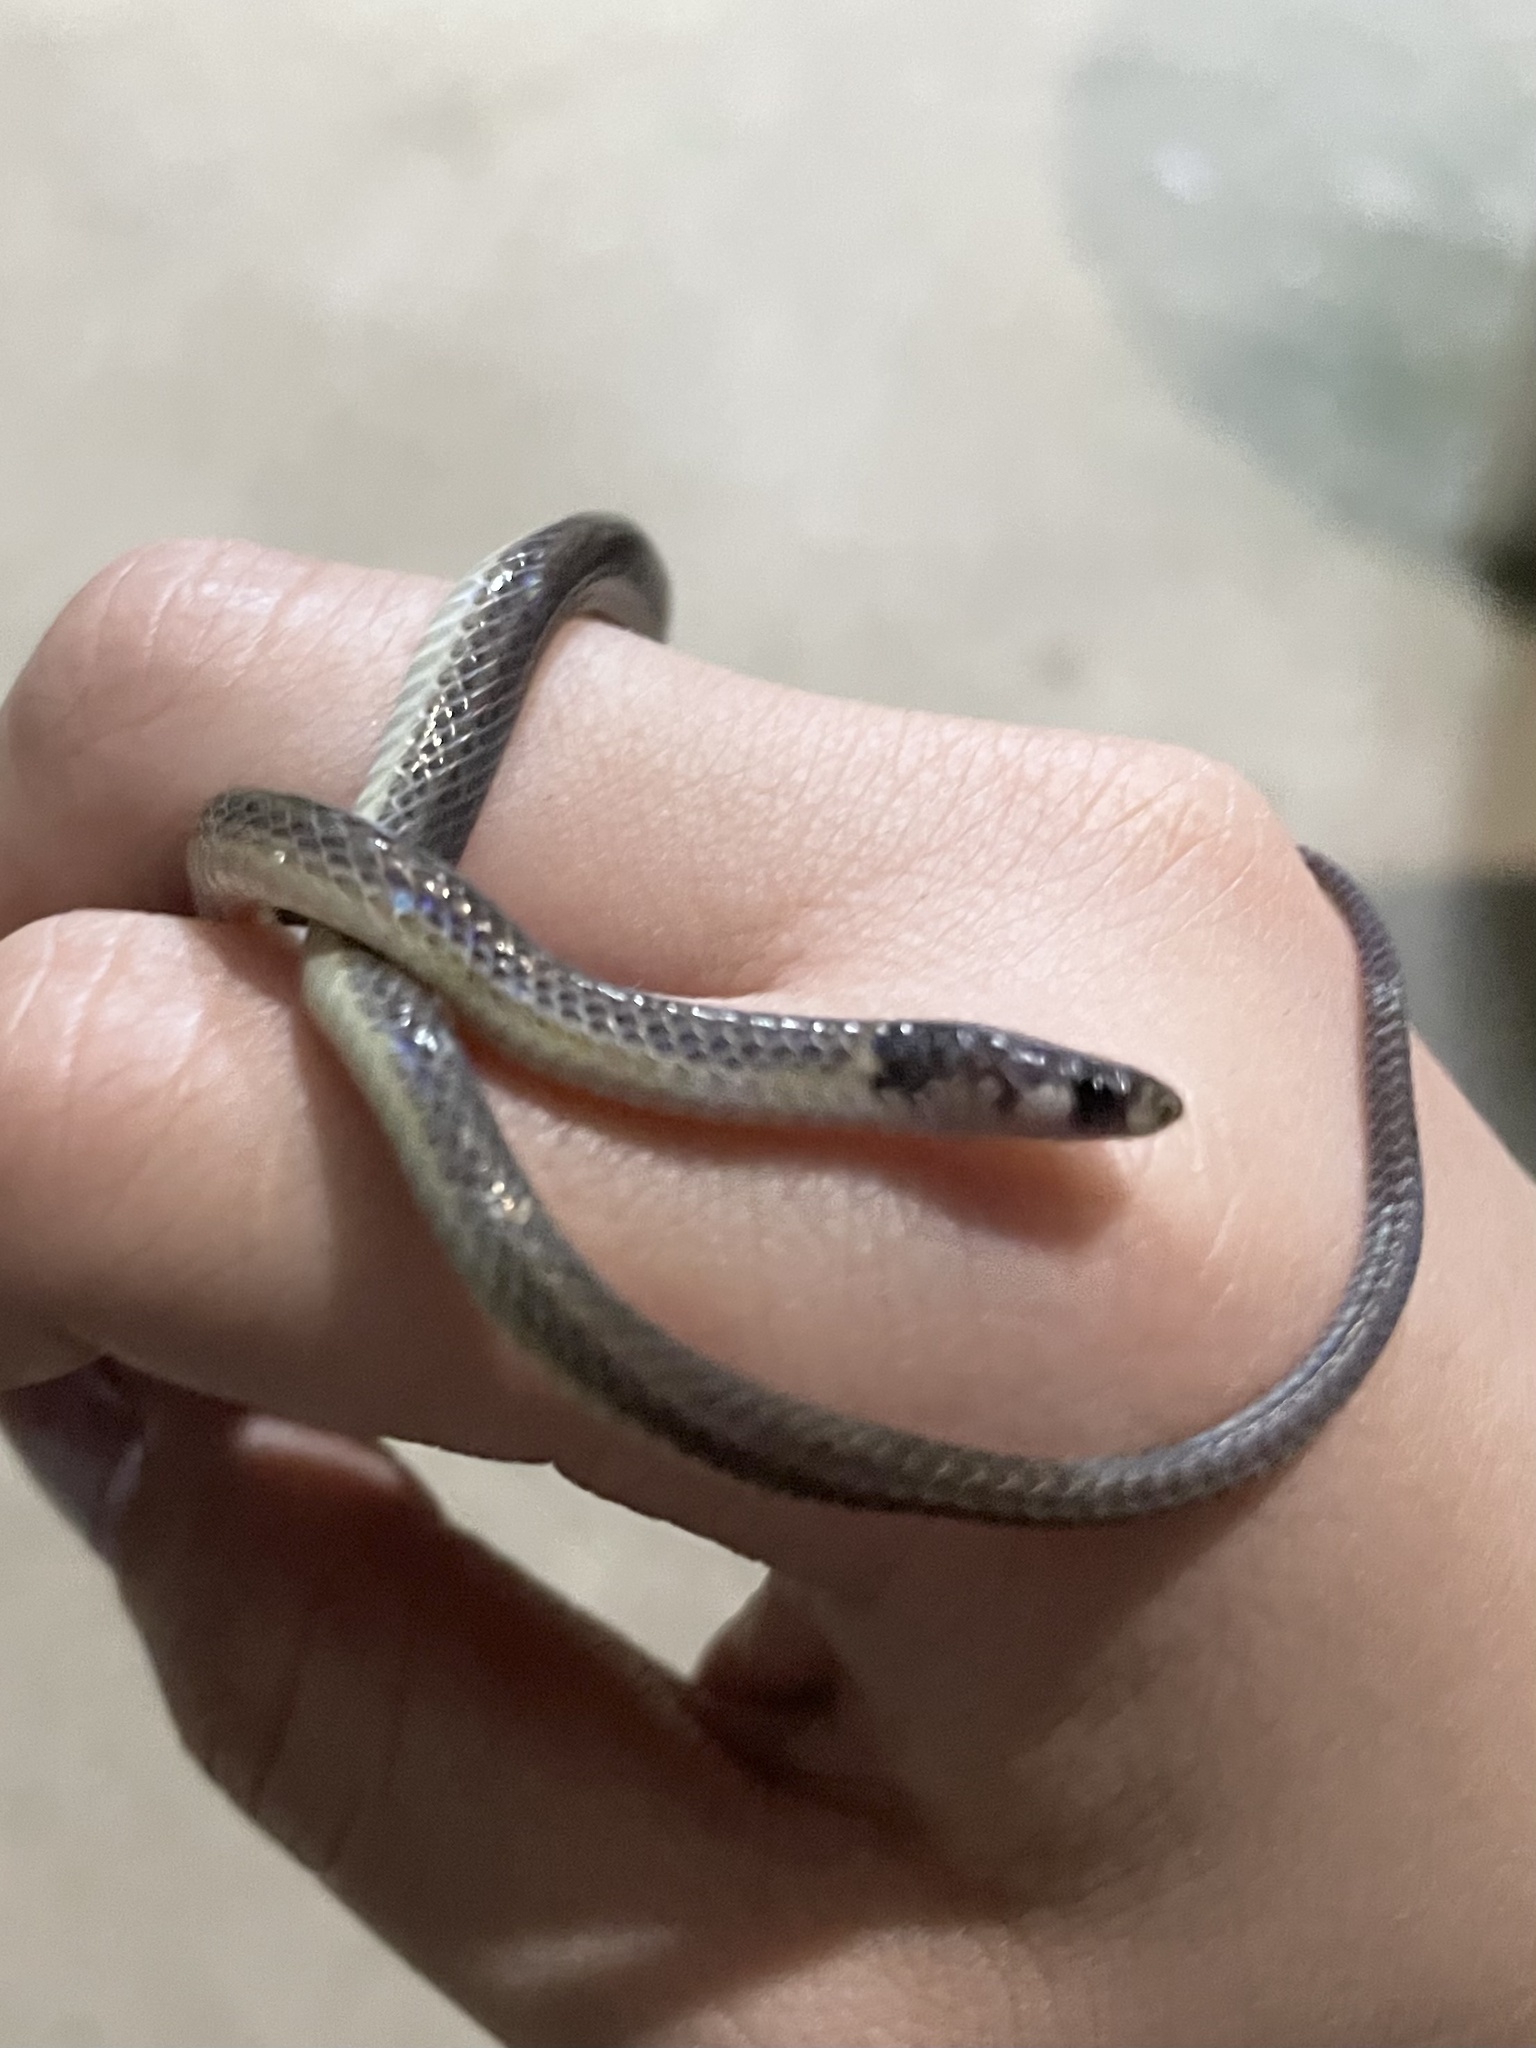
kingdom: Animalia
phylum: Chordata
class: Squamata
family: Colubridae
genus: Tantilla
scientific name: Tantilla melanocephala
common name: Black-headed snake
